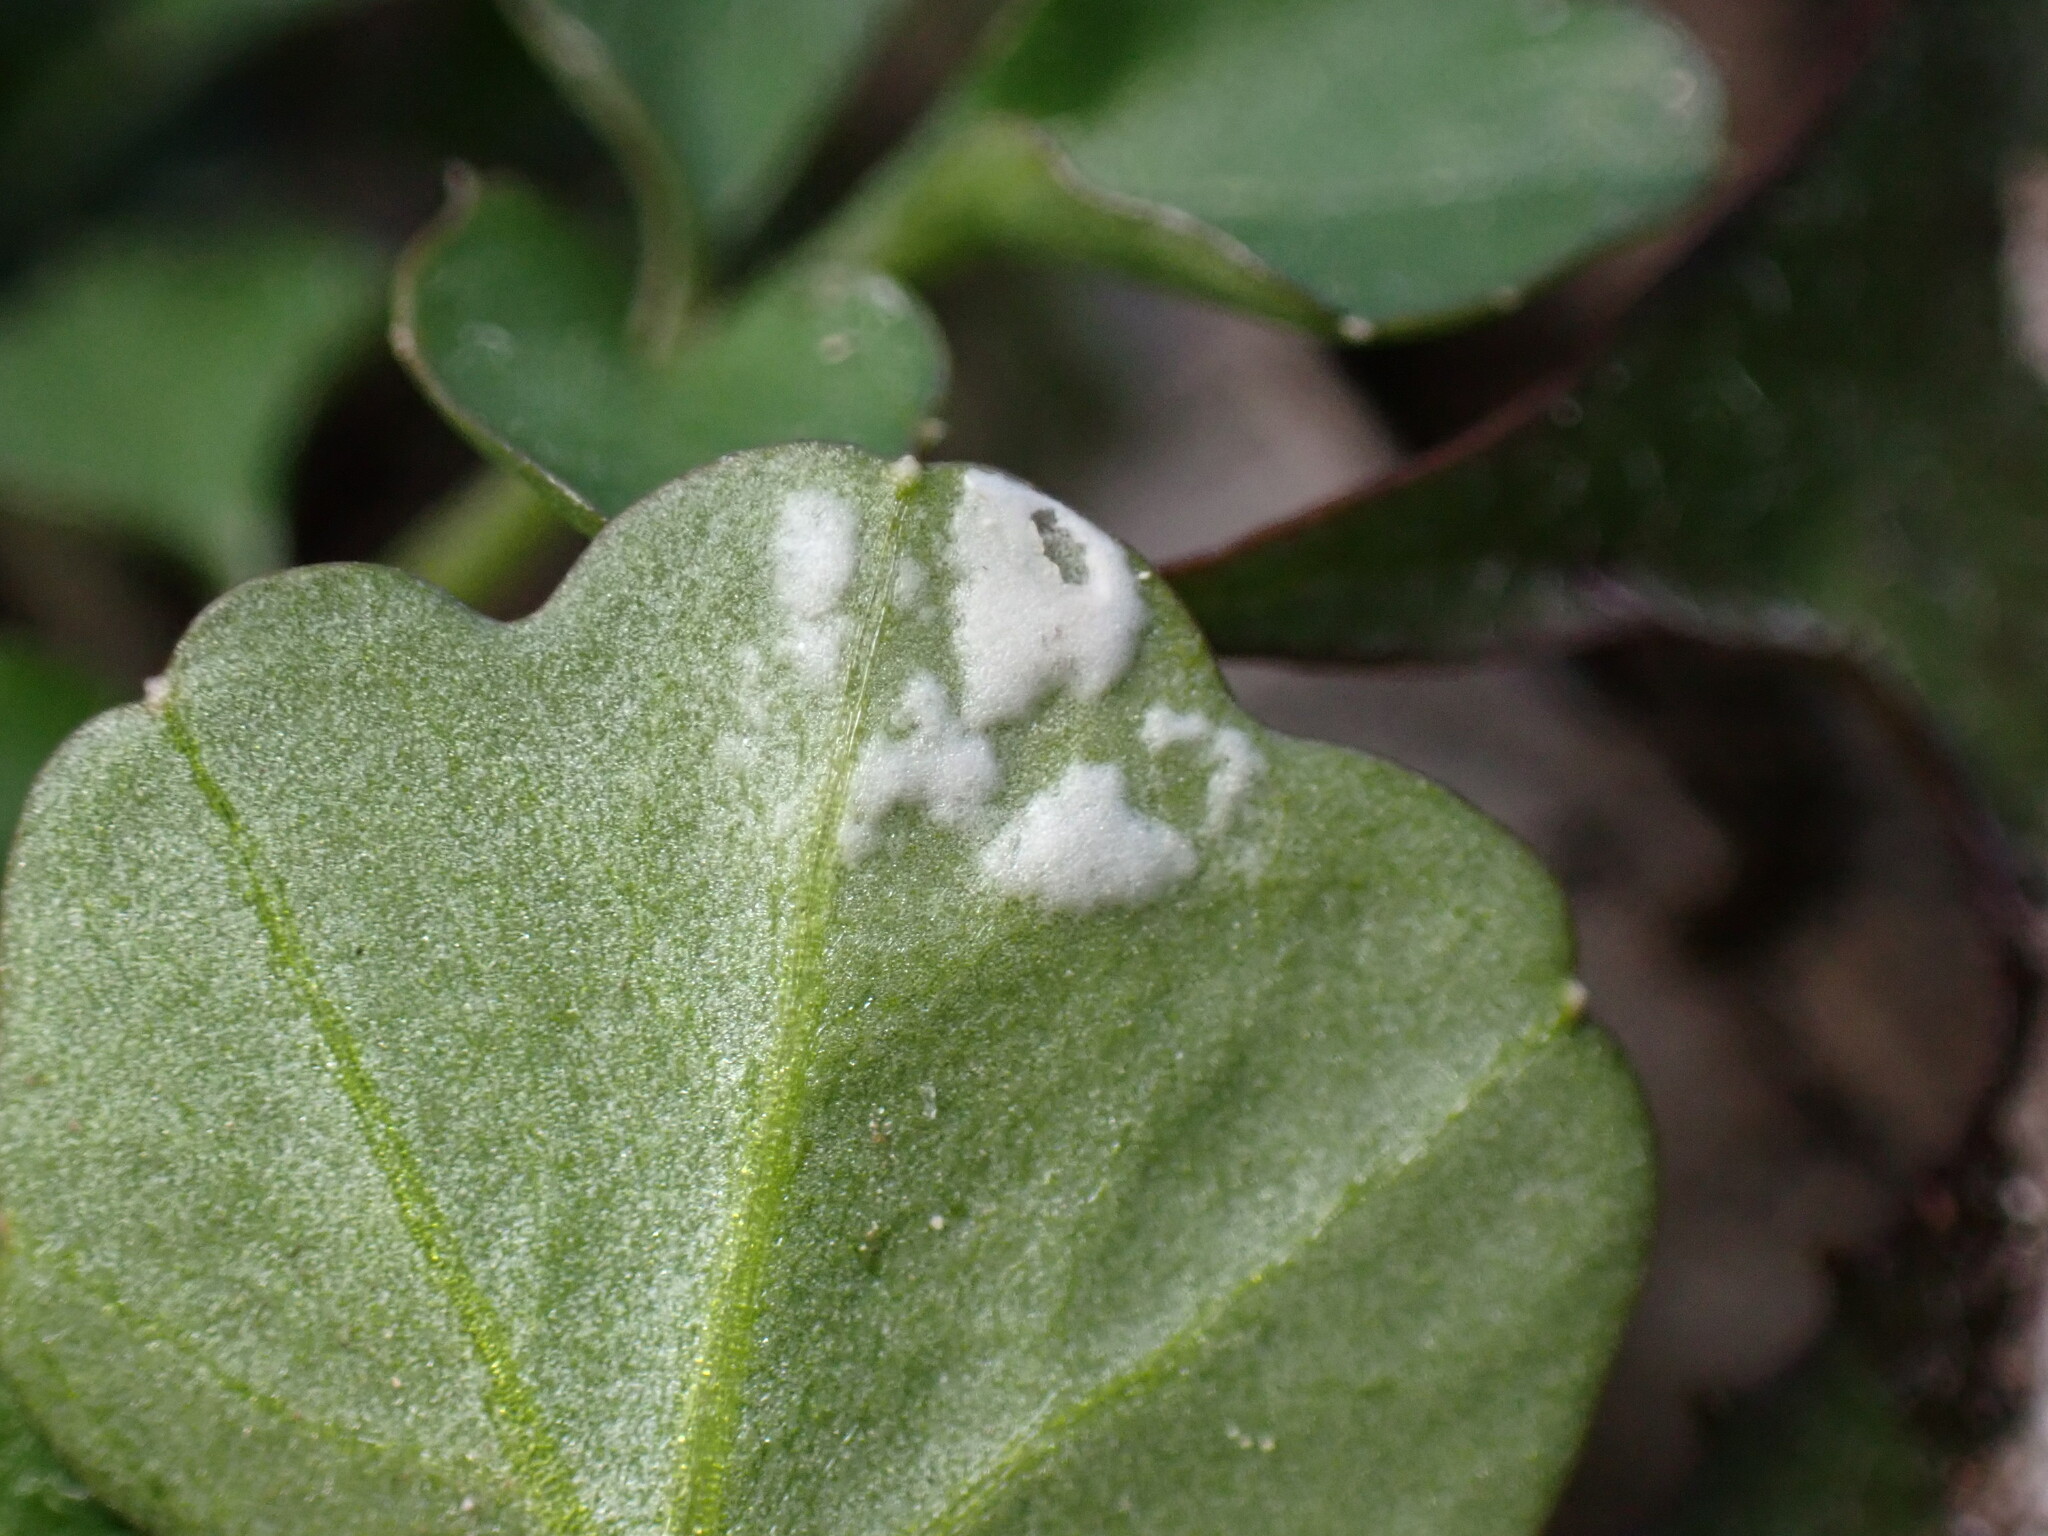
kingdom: Chromista
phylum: Oomycota
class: Peronosporea
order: Albuginales
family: Albuginaceae
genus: Albugo
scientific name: Albugo hohenheimia
